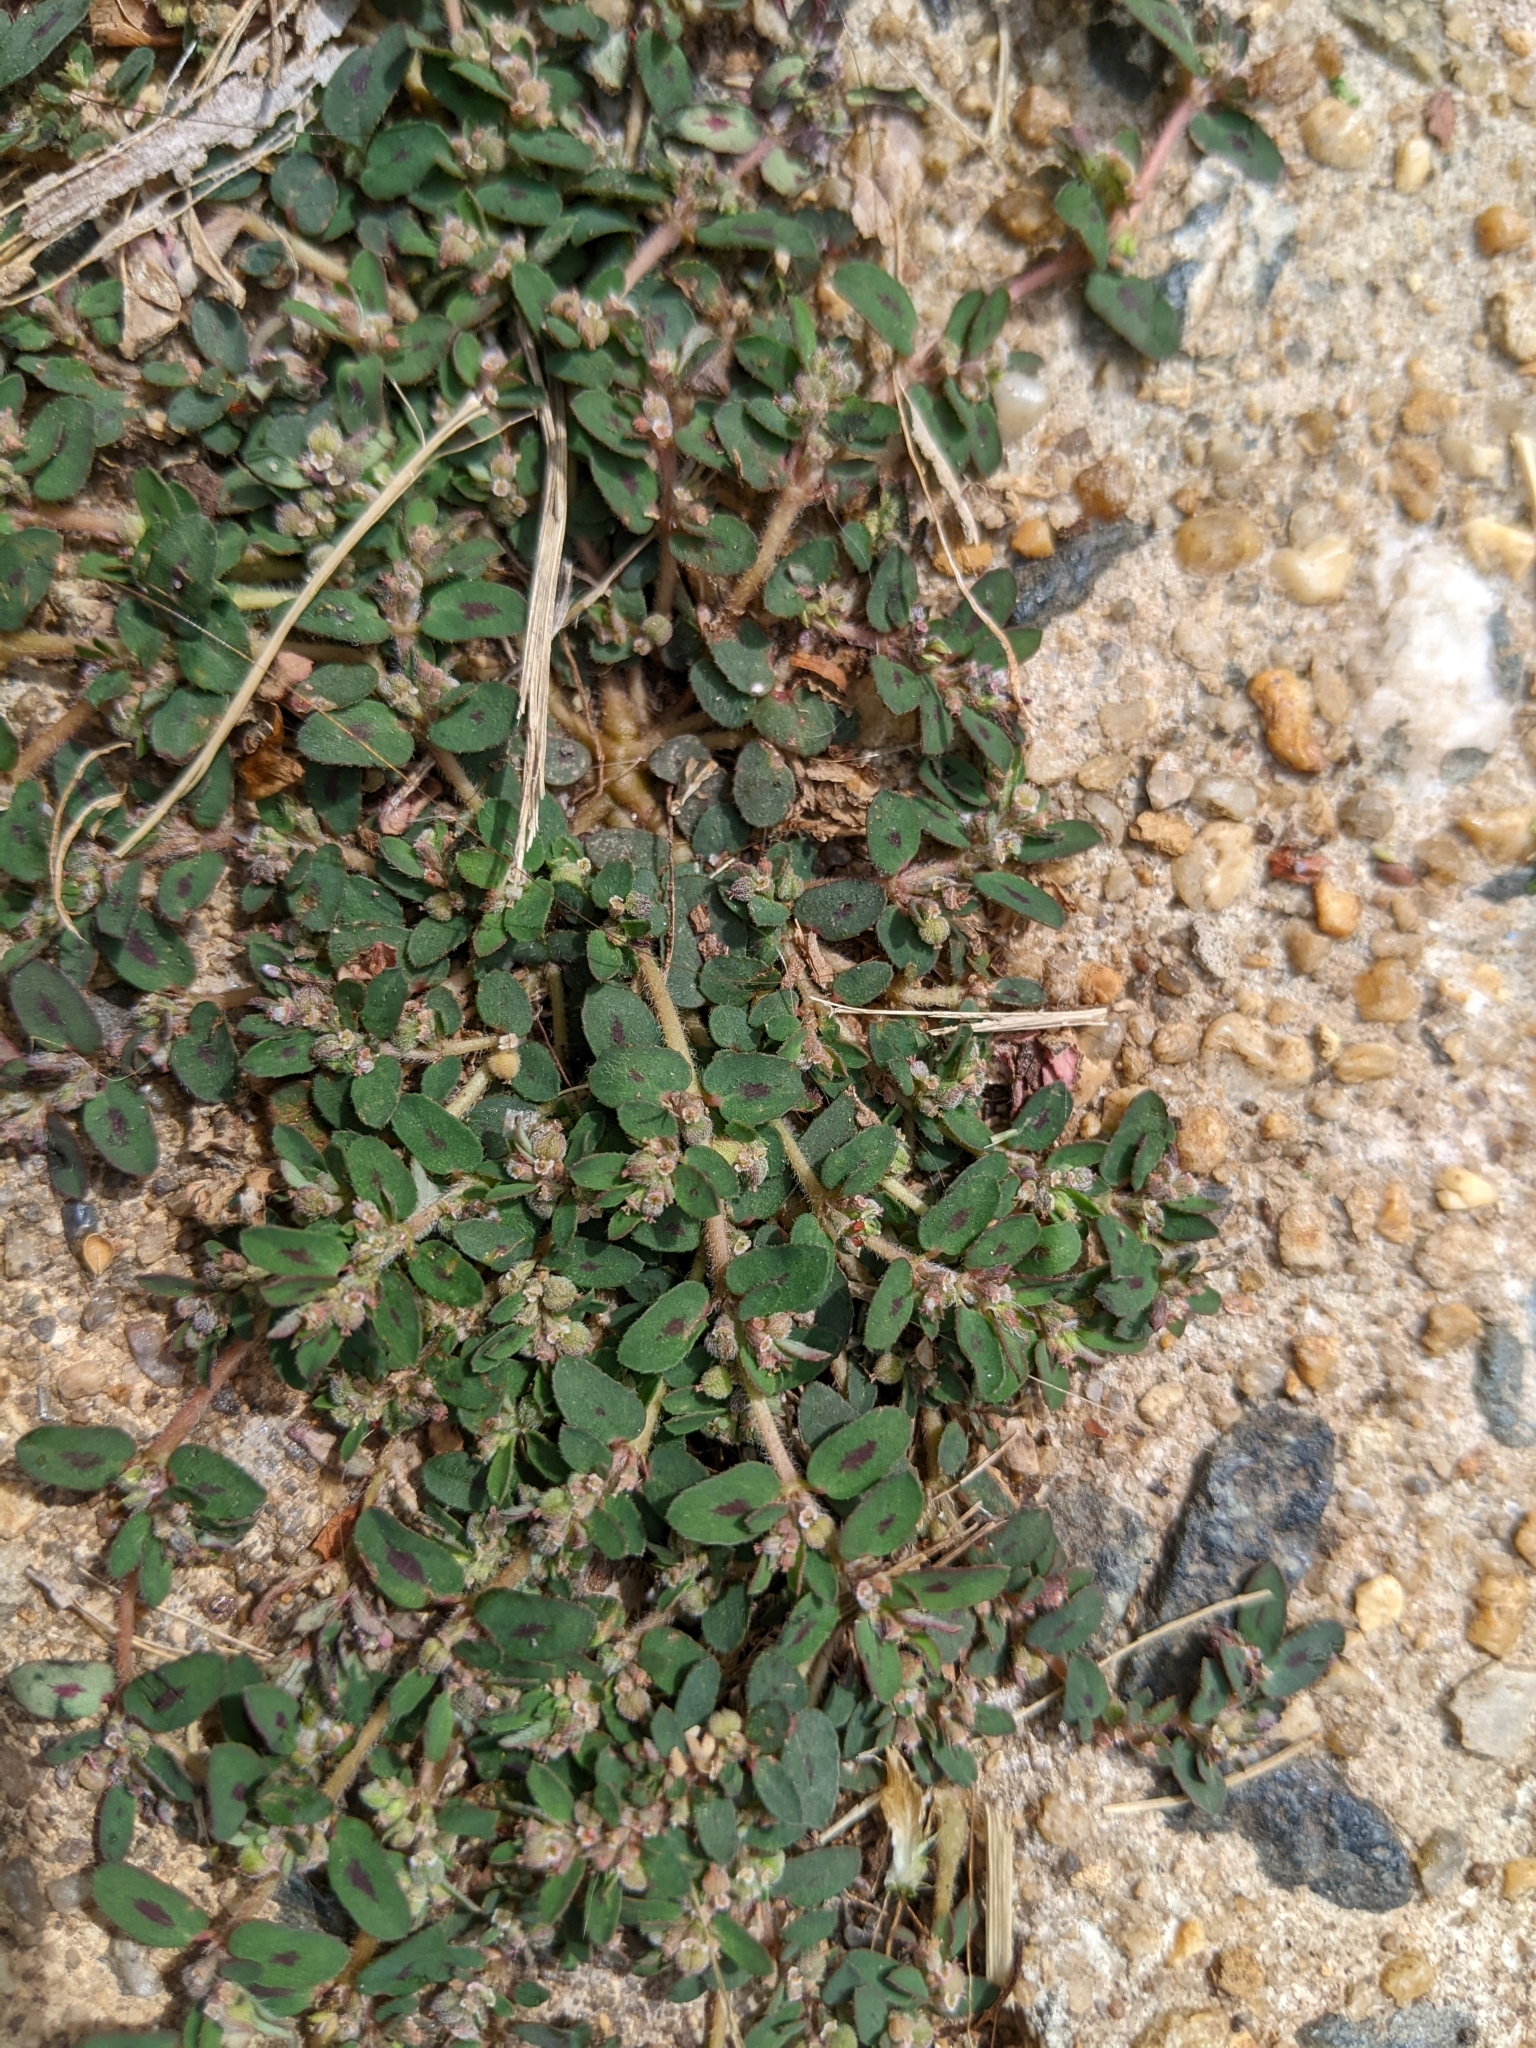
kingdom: Plantae
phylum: Tracheophyta
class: Magnoliopsida
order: Malpighiales
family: Euphorbiaceae
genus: Euphorbia
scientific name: Euphorbia maculata
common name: Spotted spurge
